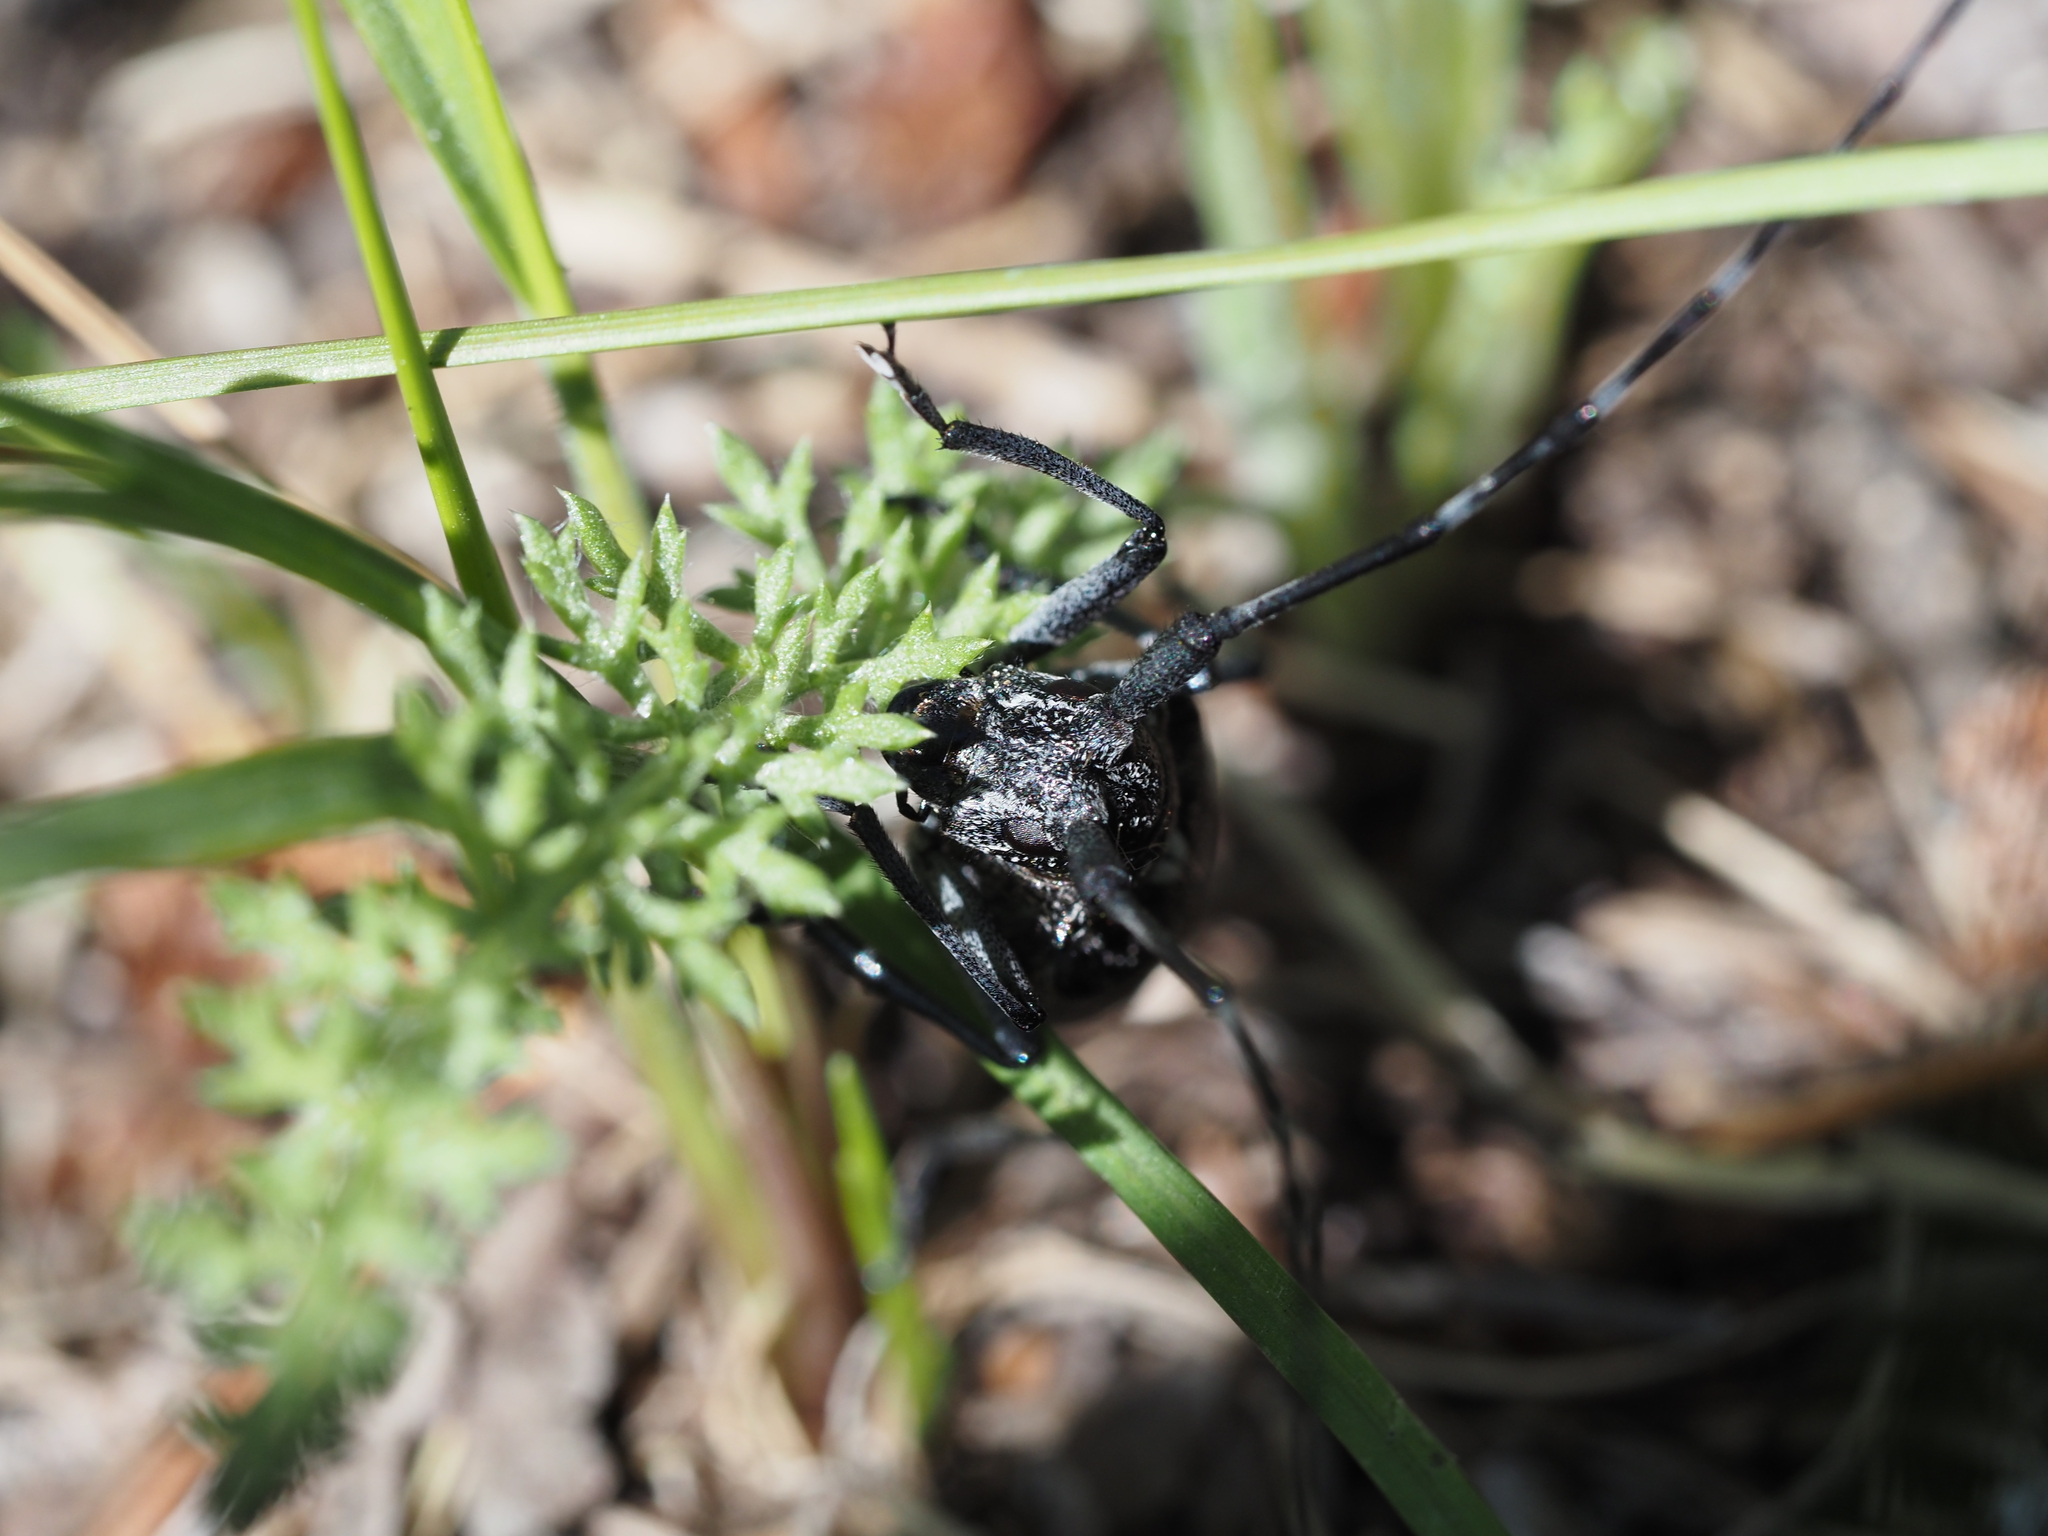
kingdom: Animalia
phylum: Arthropoda
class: Insecta
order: Coleoptera
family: Cerambycidae
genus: Monochamus
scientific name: Monochamus scutellatus
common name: White-spotted sawyer beetle
